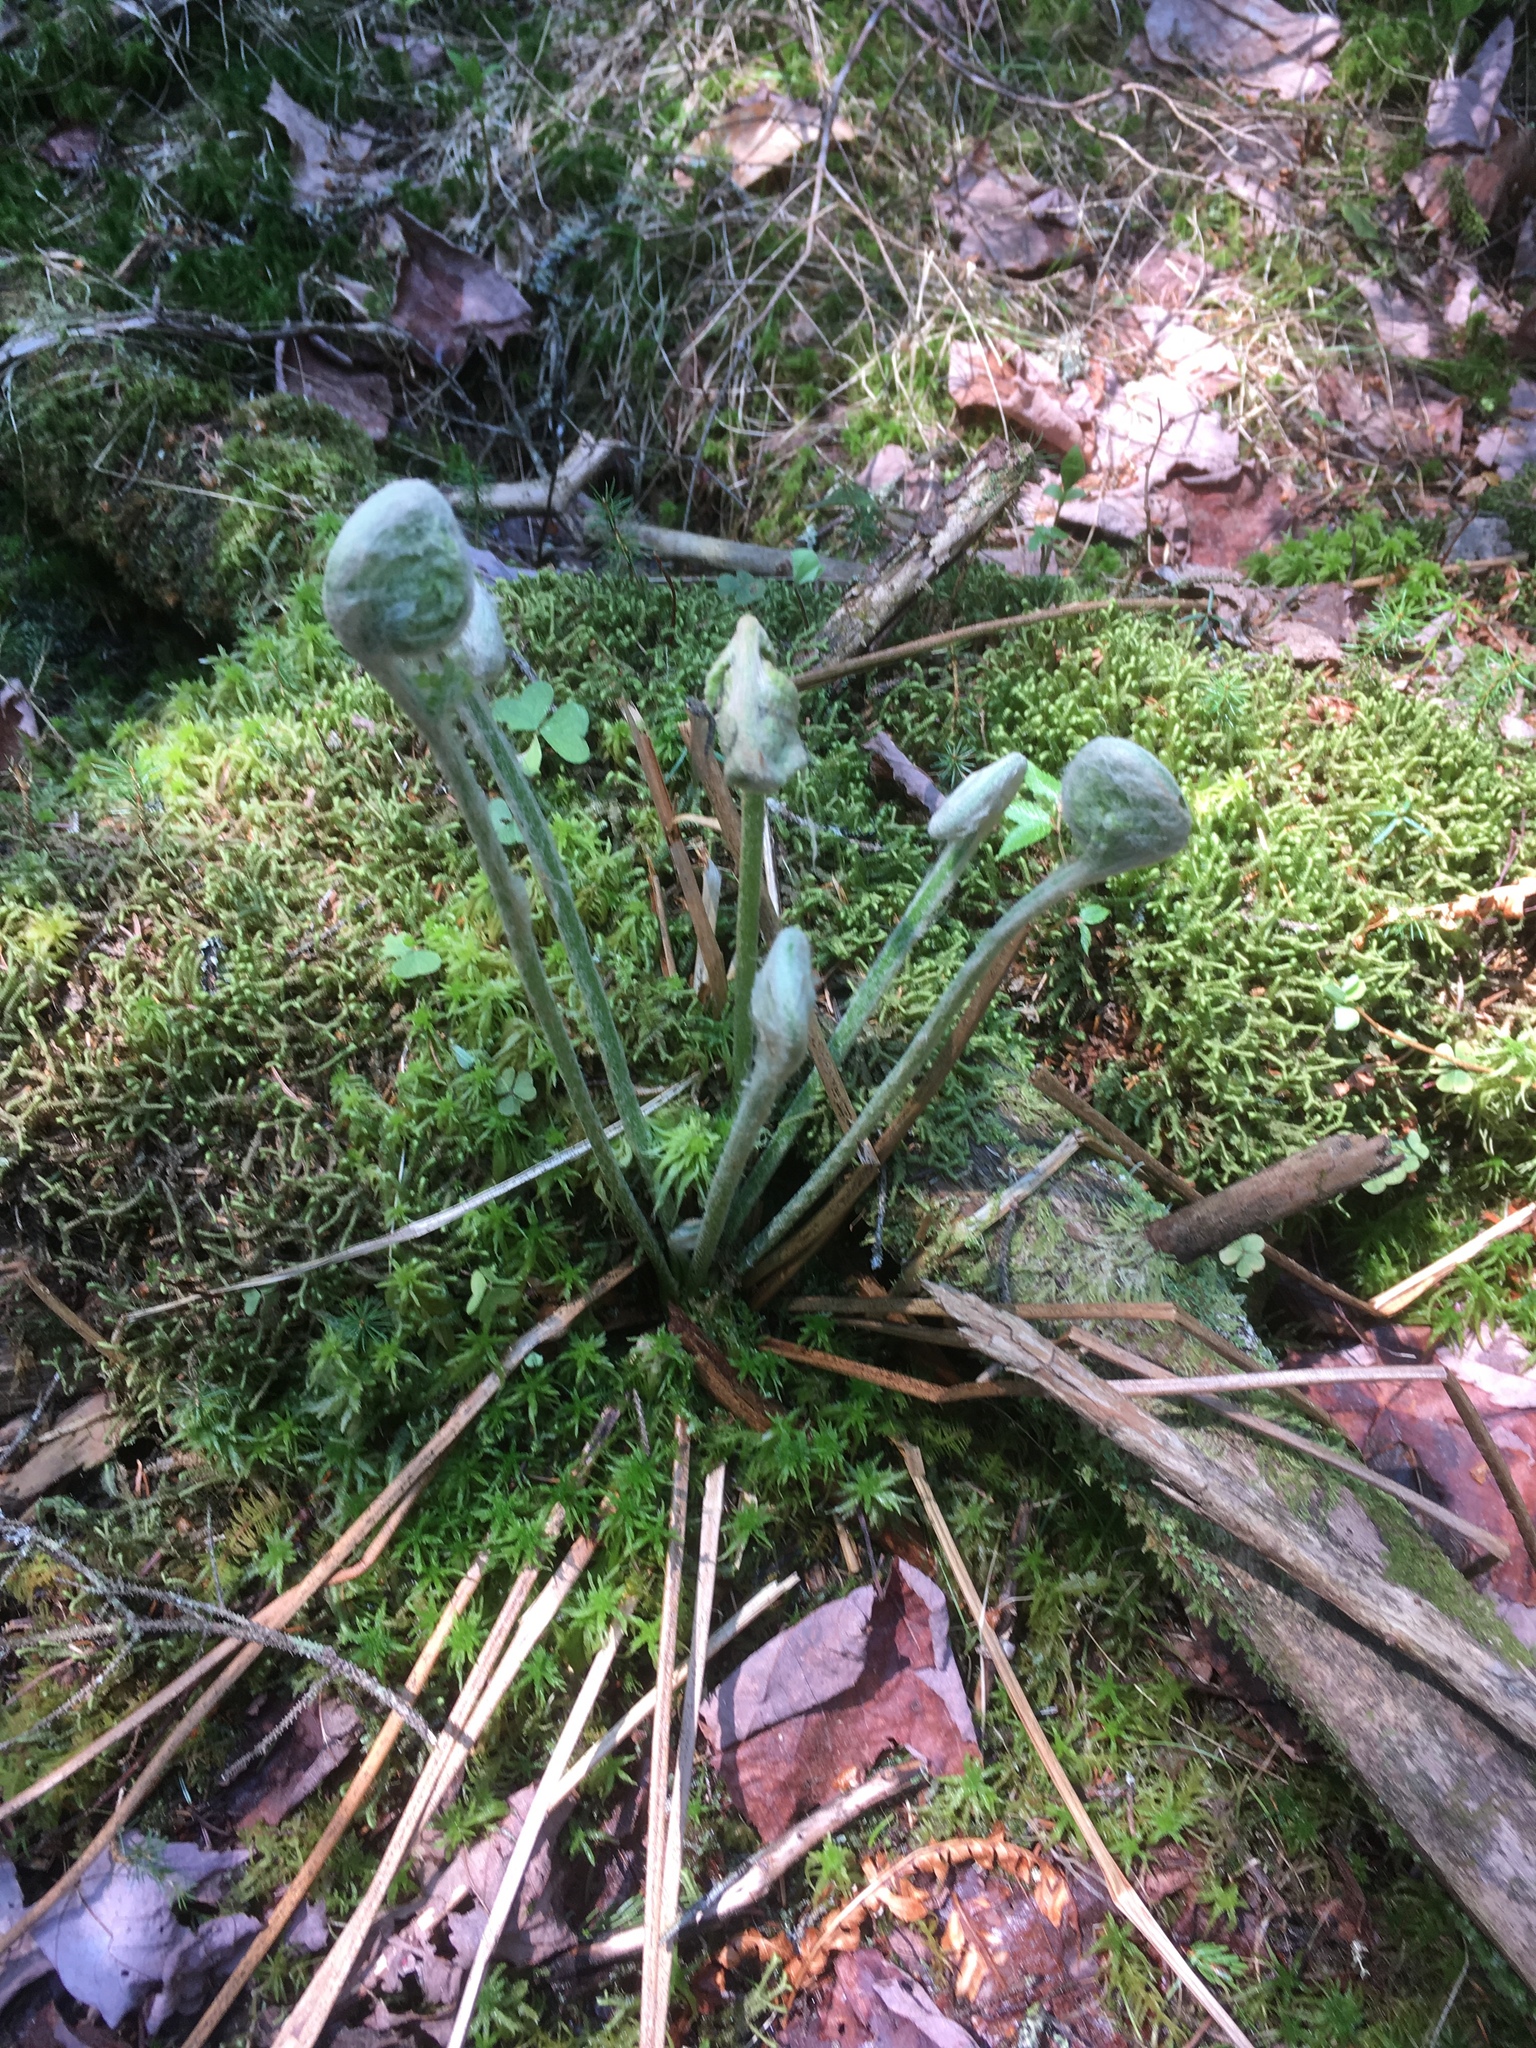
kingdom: Plantae
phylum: Tracheophyta
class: Polypodiopsida
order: Osmundales
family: Osmundaceae
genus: Osmundastrum
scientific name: Osmundastrum cinnamomeum
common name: Cinnamon fern
